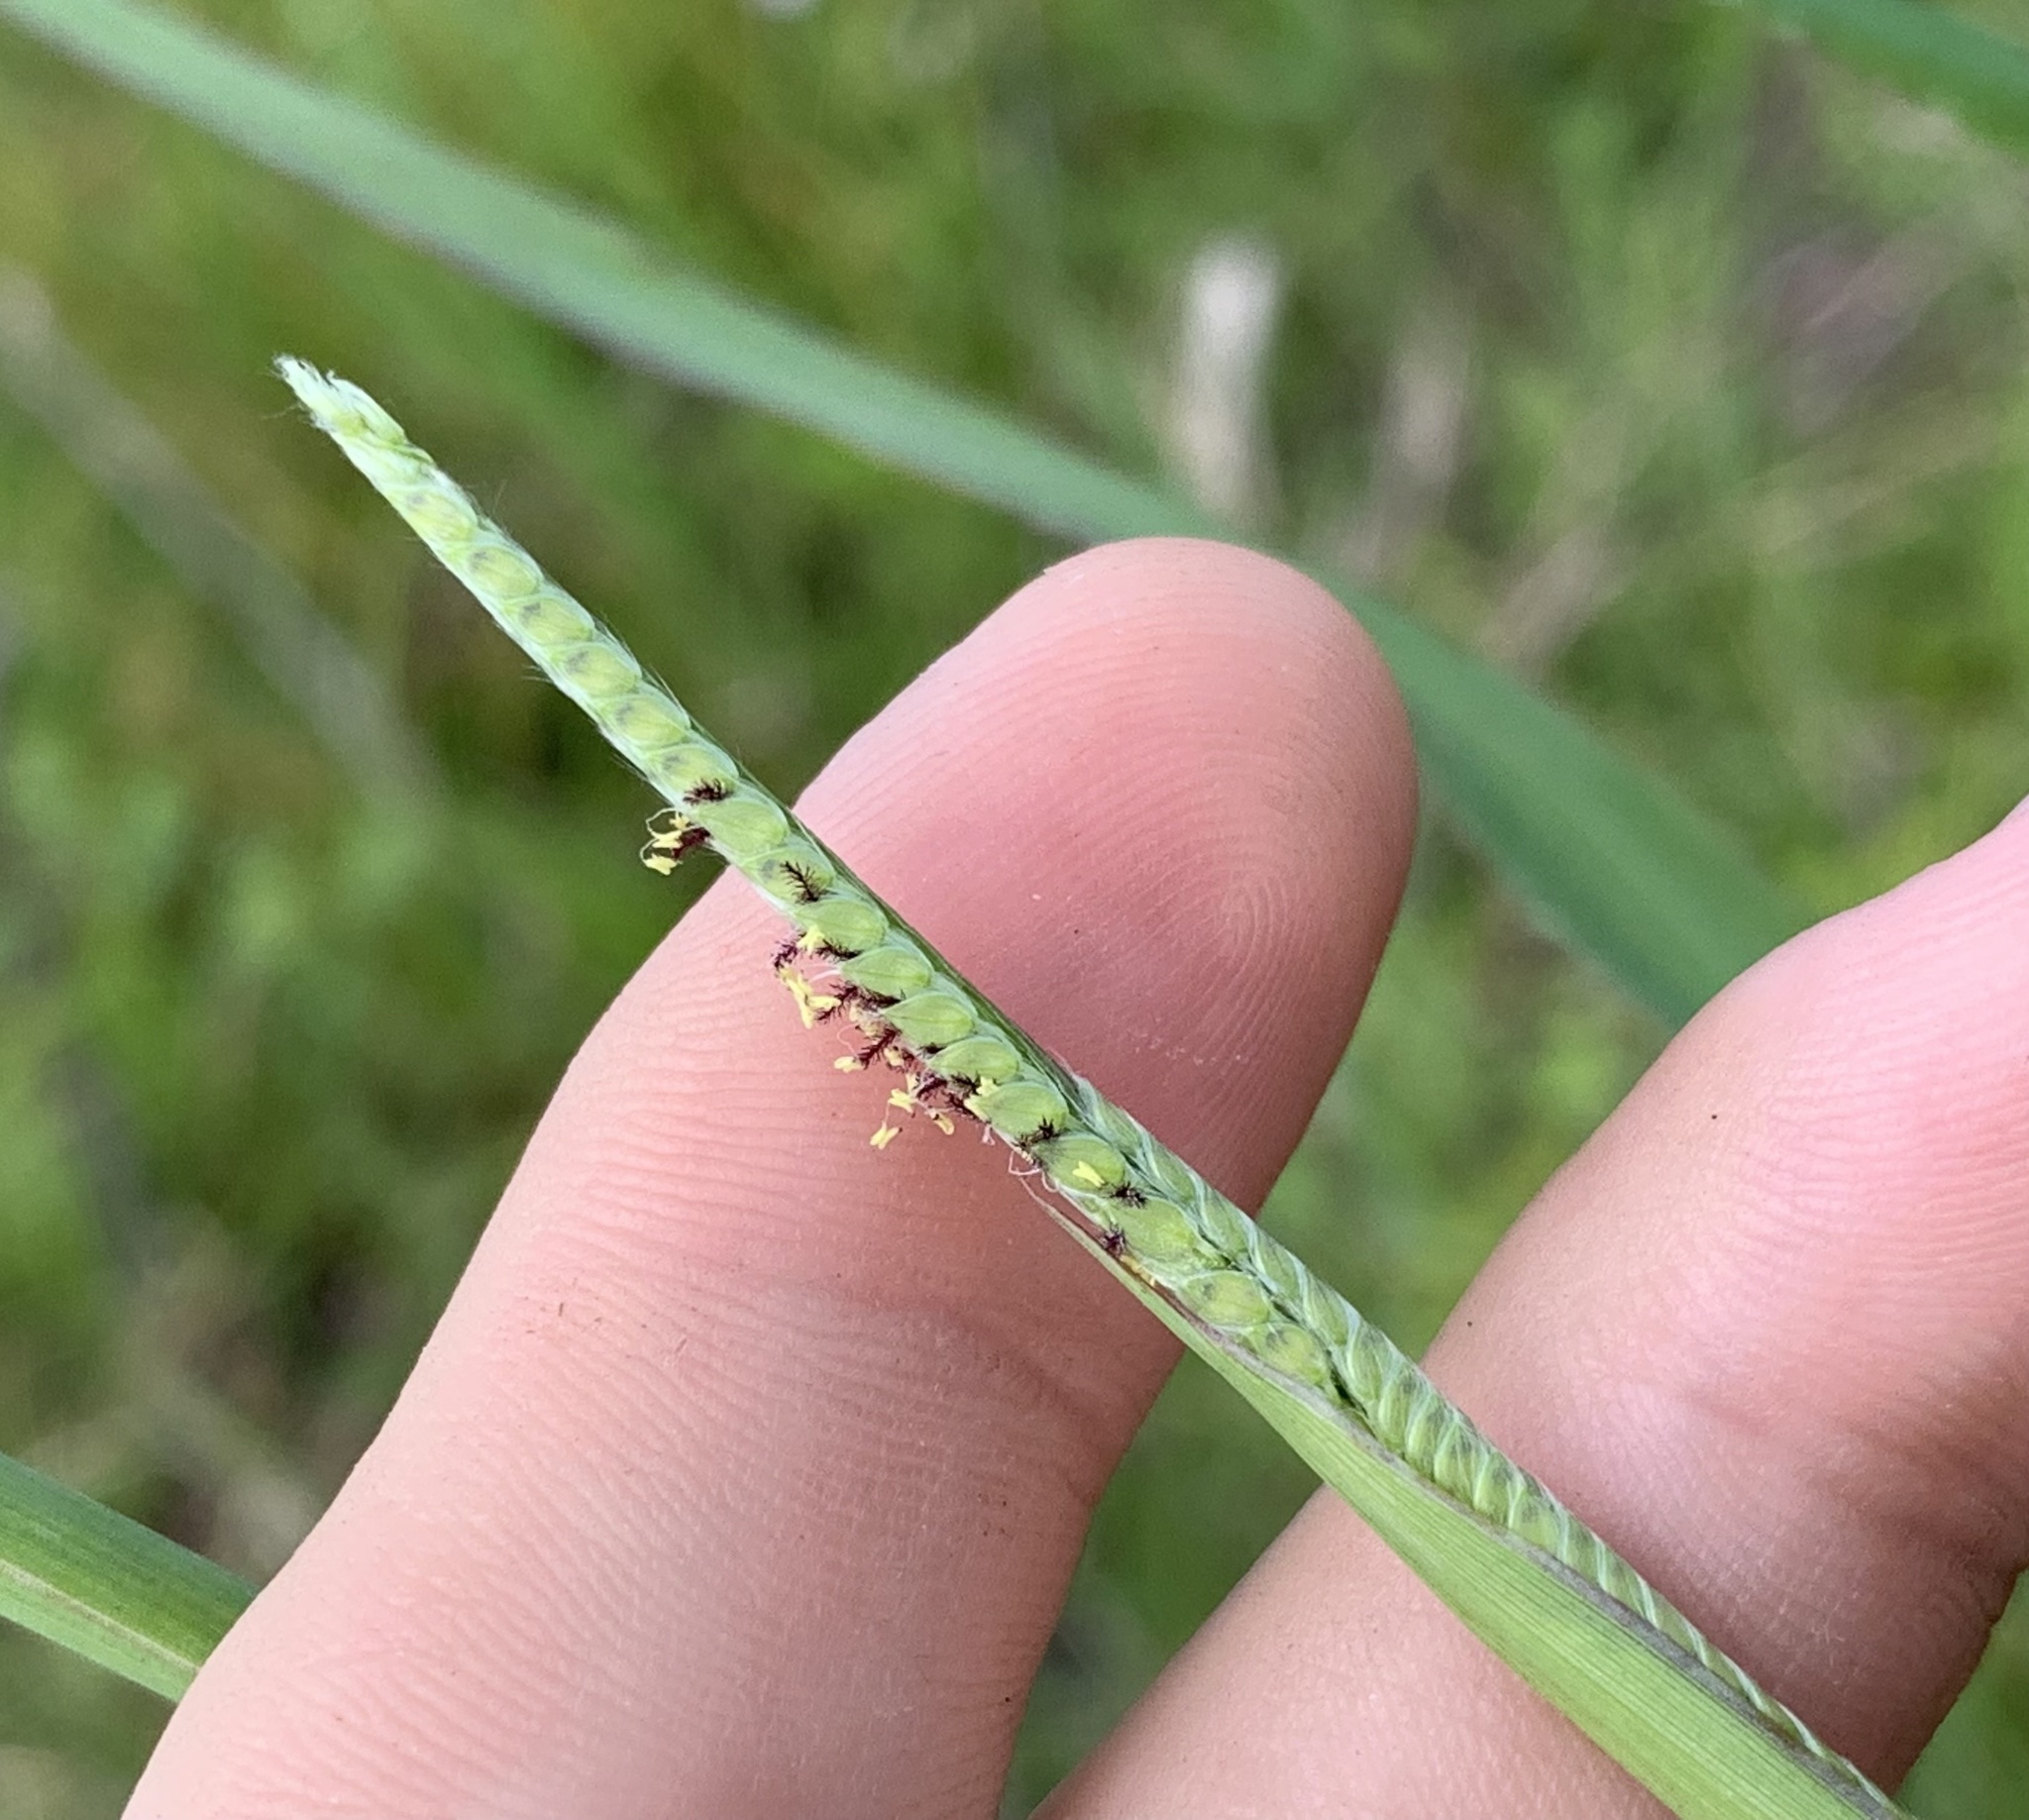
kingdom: Plantae
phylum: Tracheophyta
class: Liliopsida
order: Poales
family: Poaceae
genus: Paspalum
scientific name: Paspalum urvillei
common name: Vasey's grass
